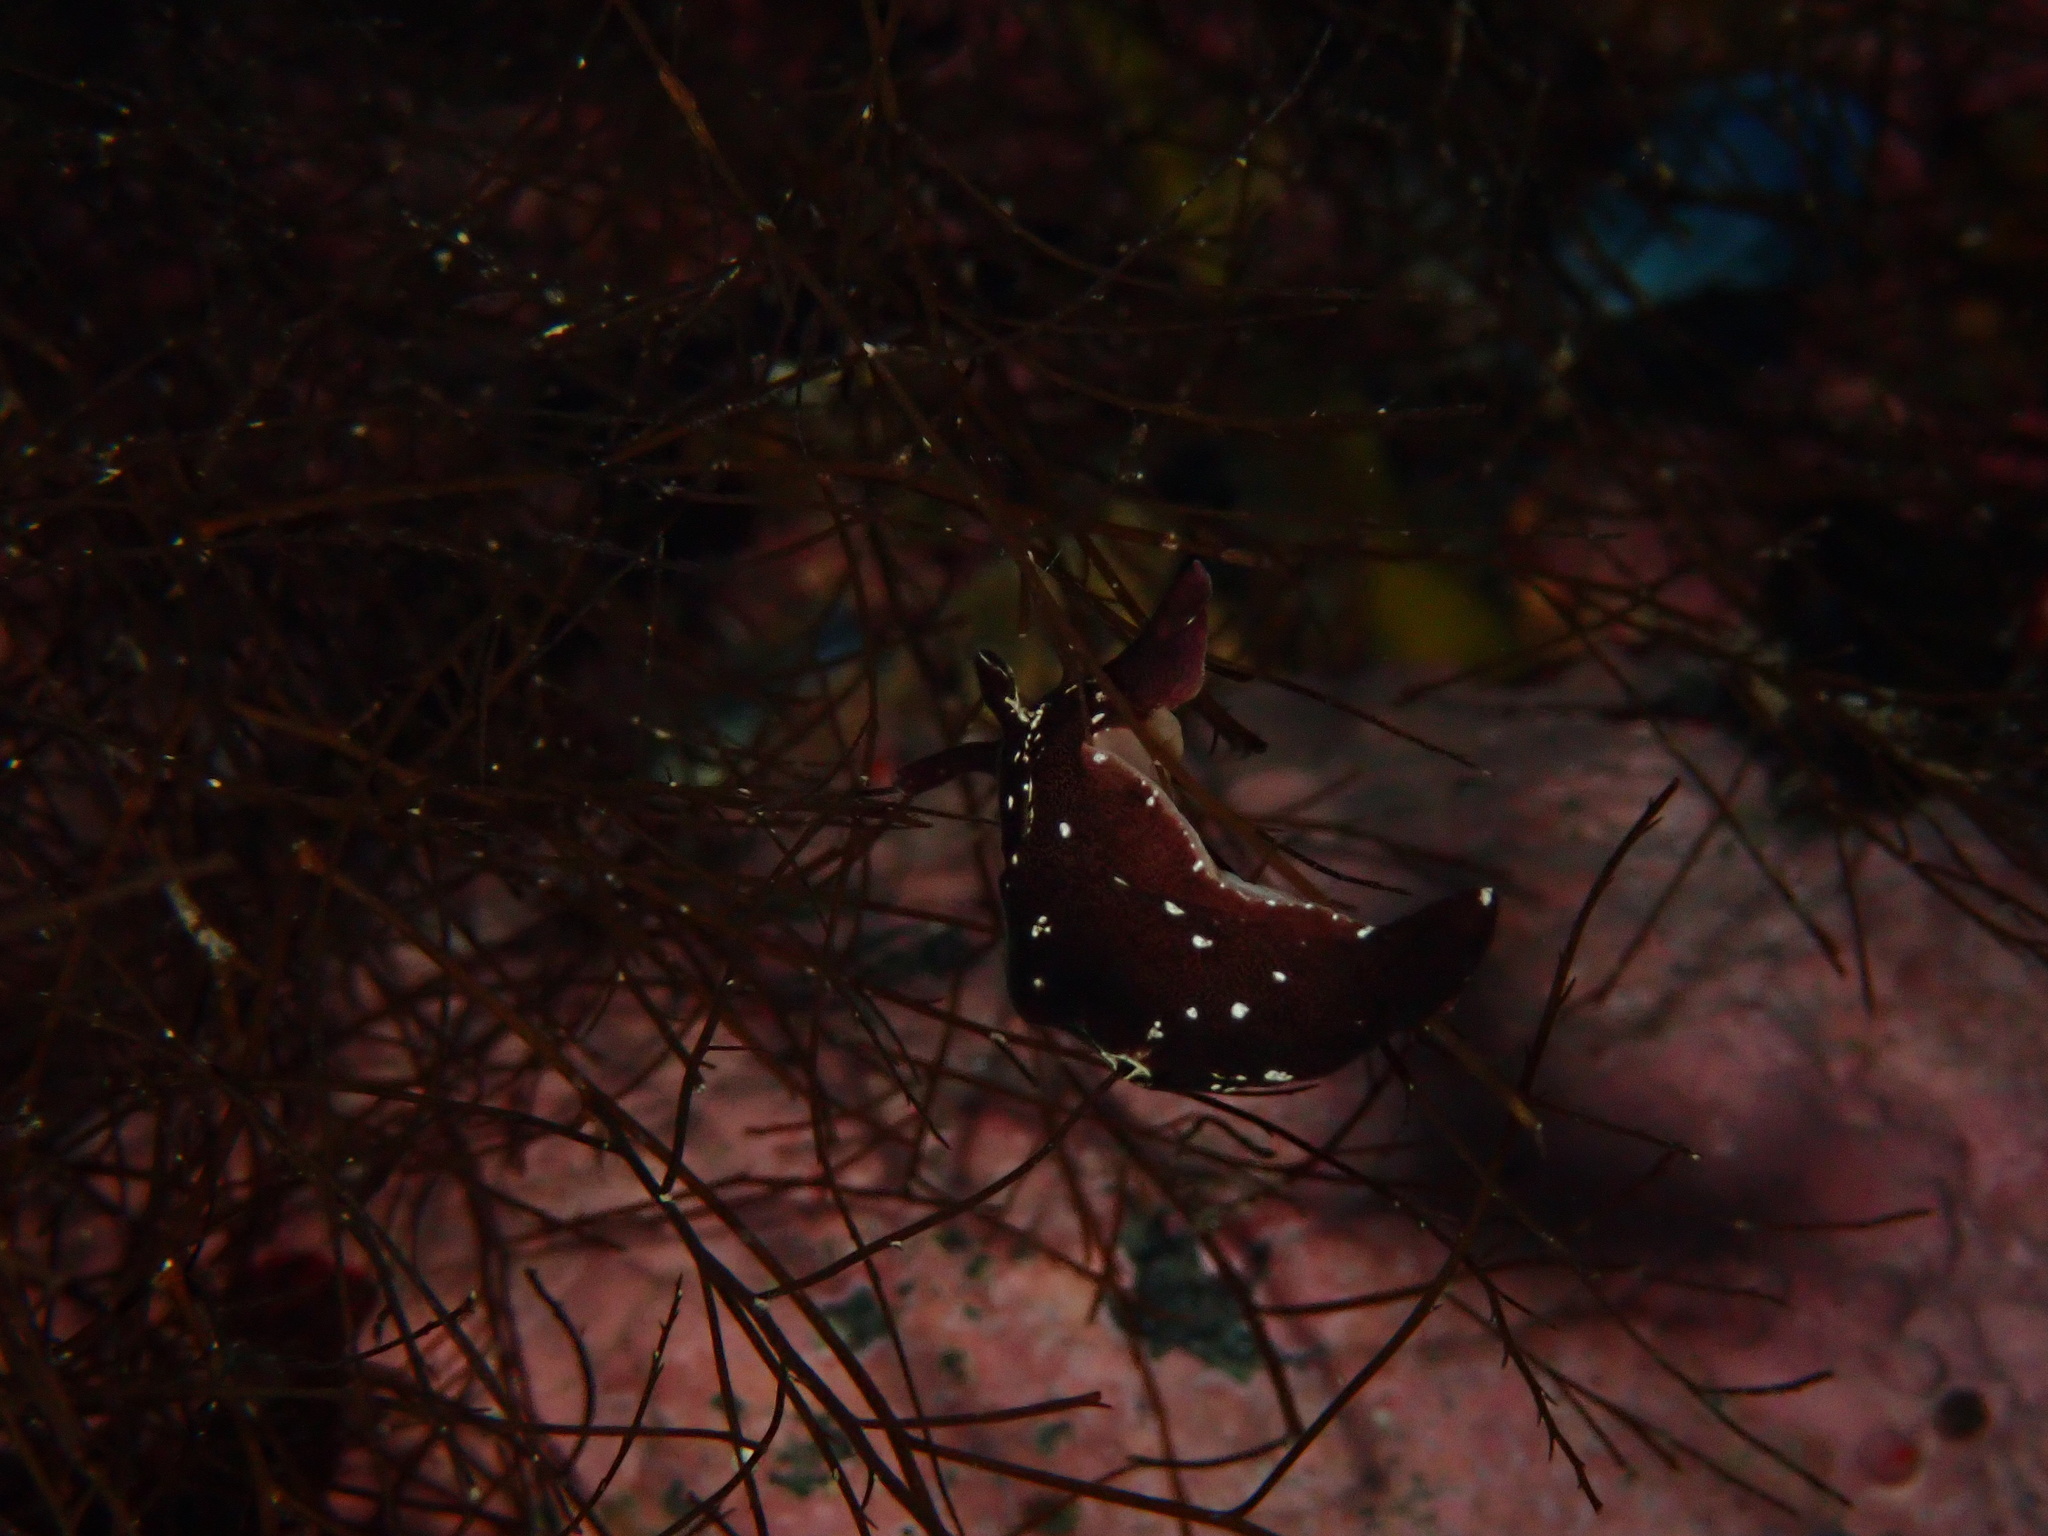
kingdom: Animalia
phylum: Mollusca
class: Gastropoda
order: Aplysiida
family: Aplysiidae
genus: Aplysia
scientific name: Aplysia punctata
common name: Common sea hare
